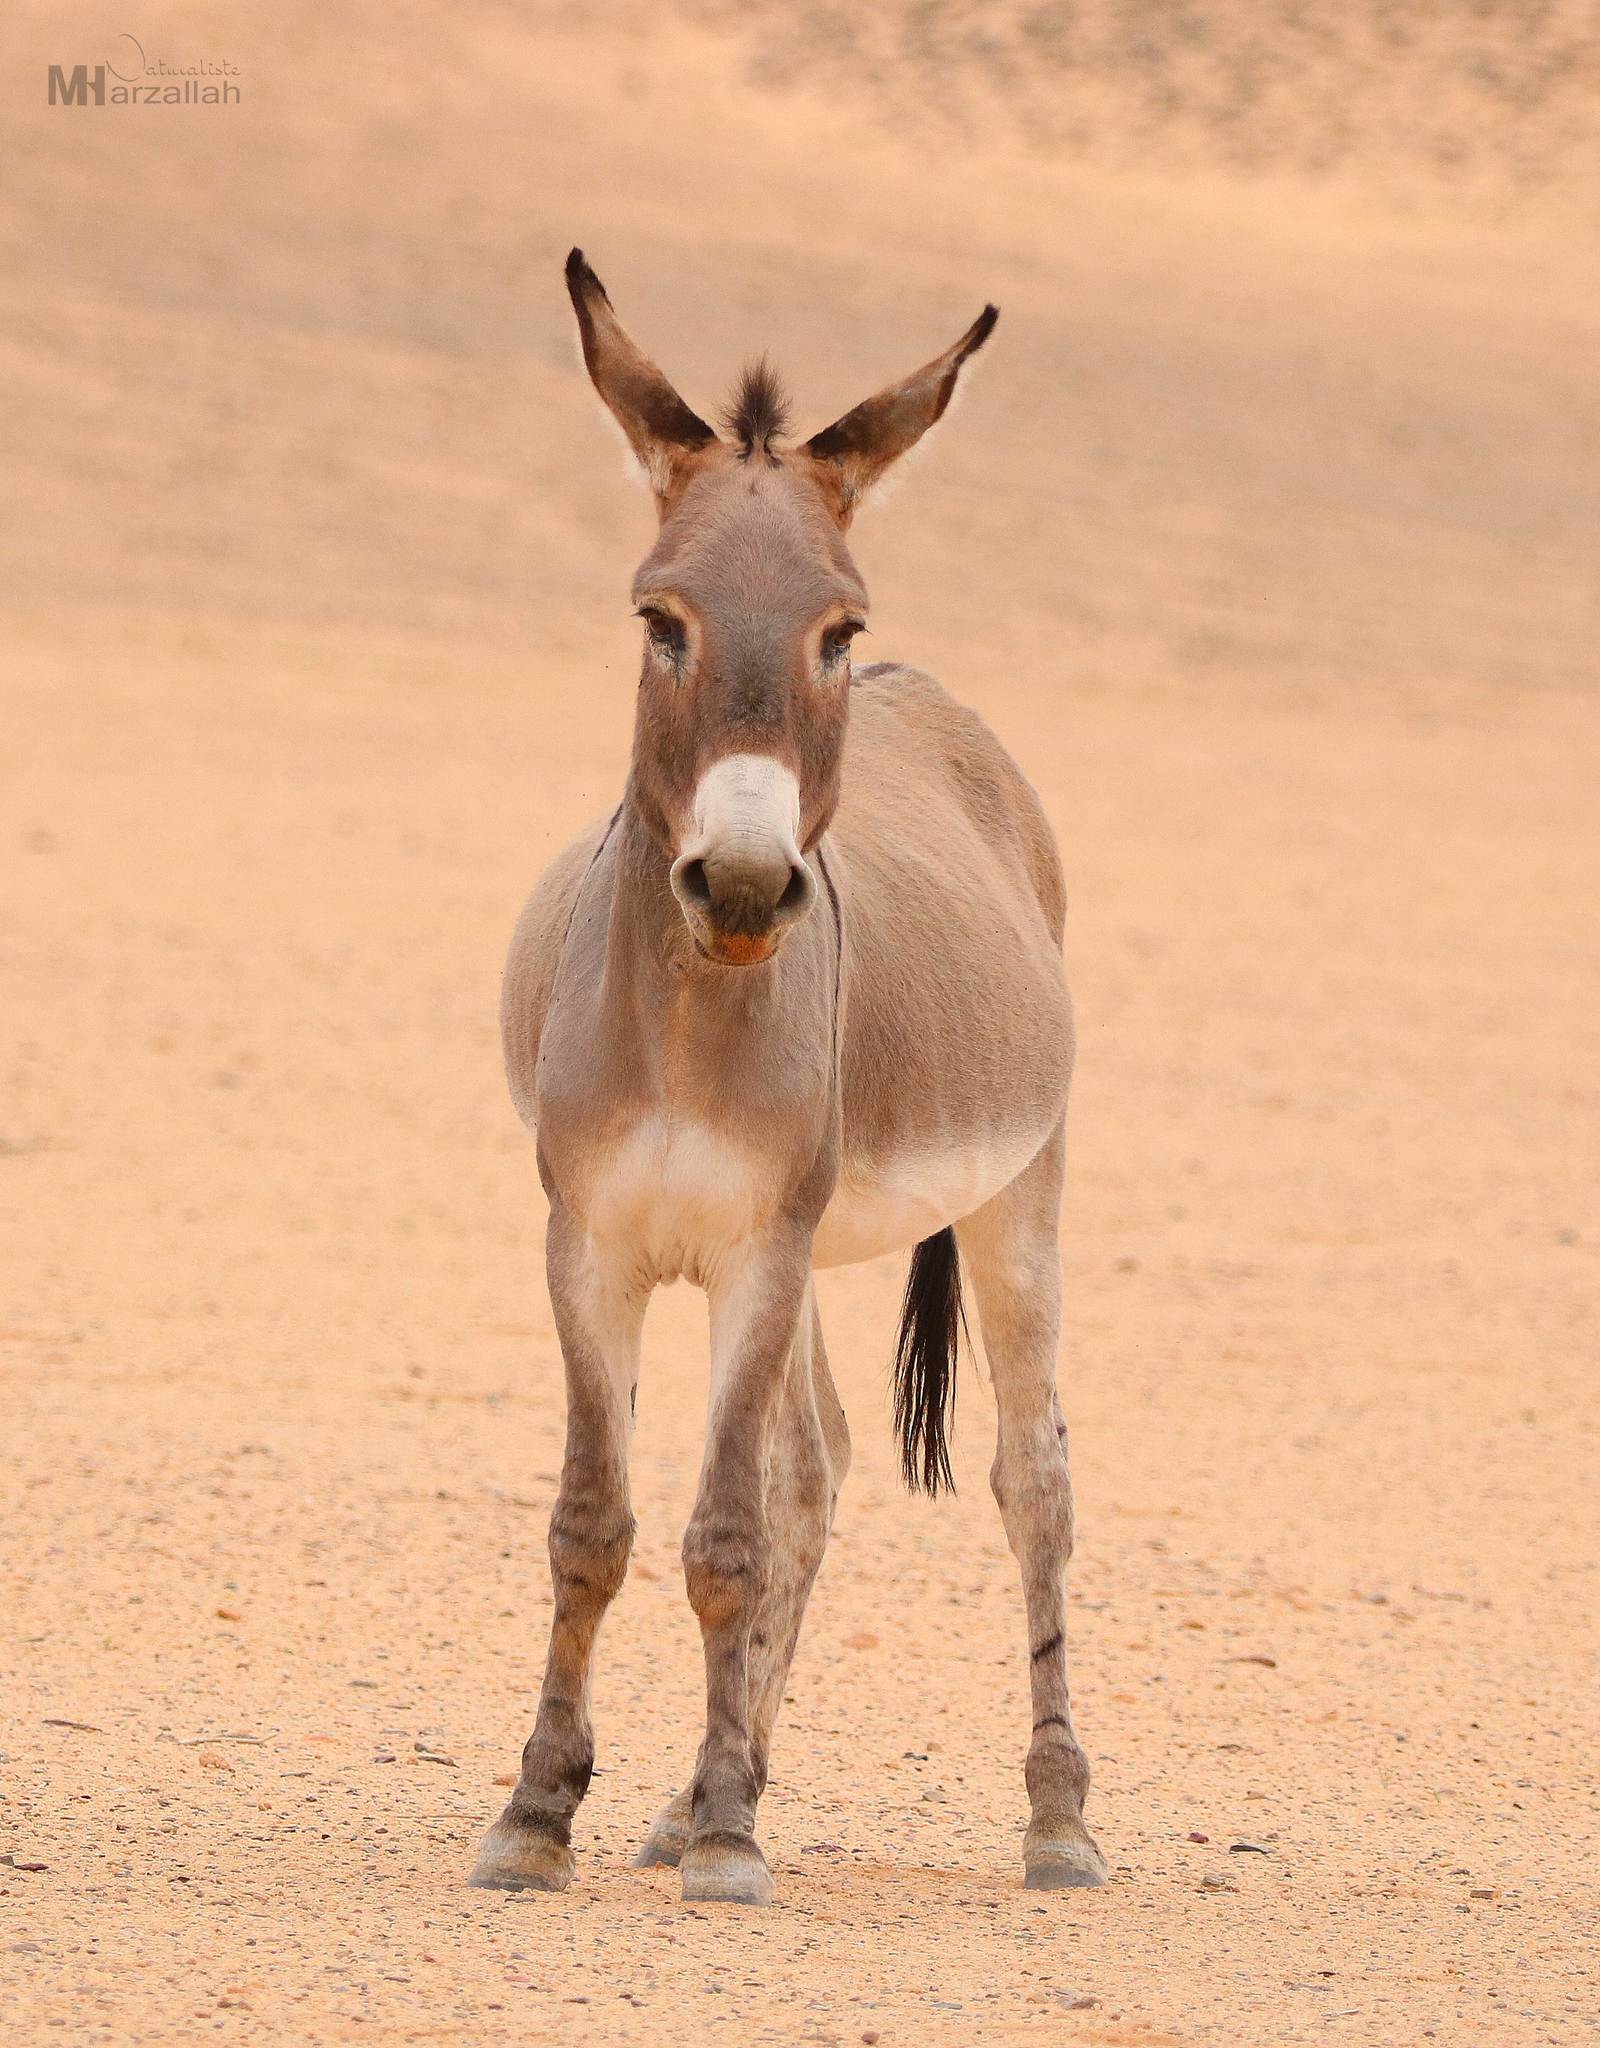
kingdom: Animalia
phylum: Chordata
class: Mammalia
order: Perissodactyla
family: Equidae
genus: Equus
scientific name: Equus asinus
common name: Ass
